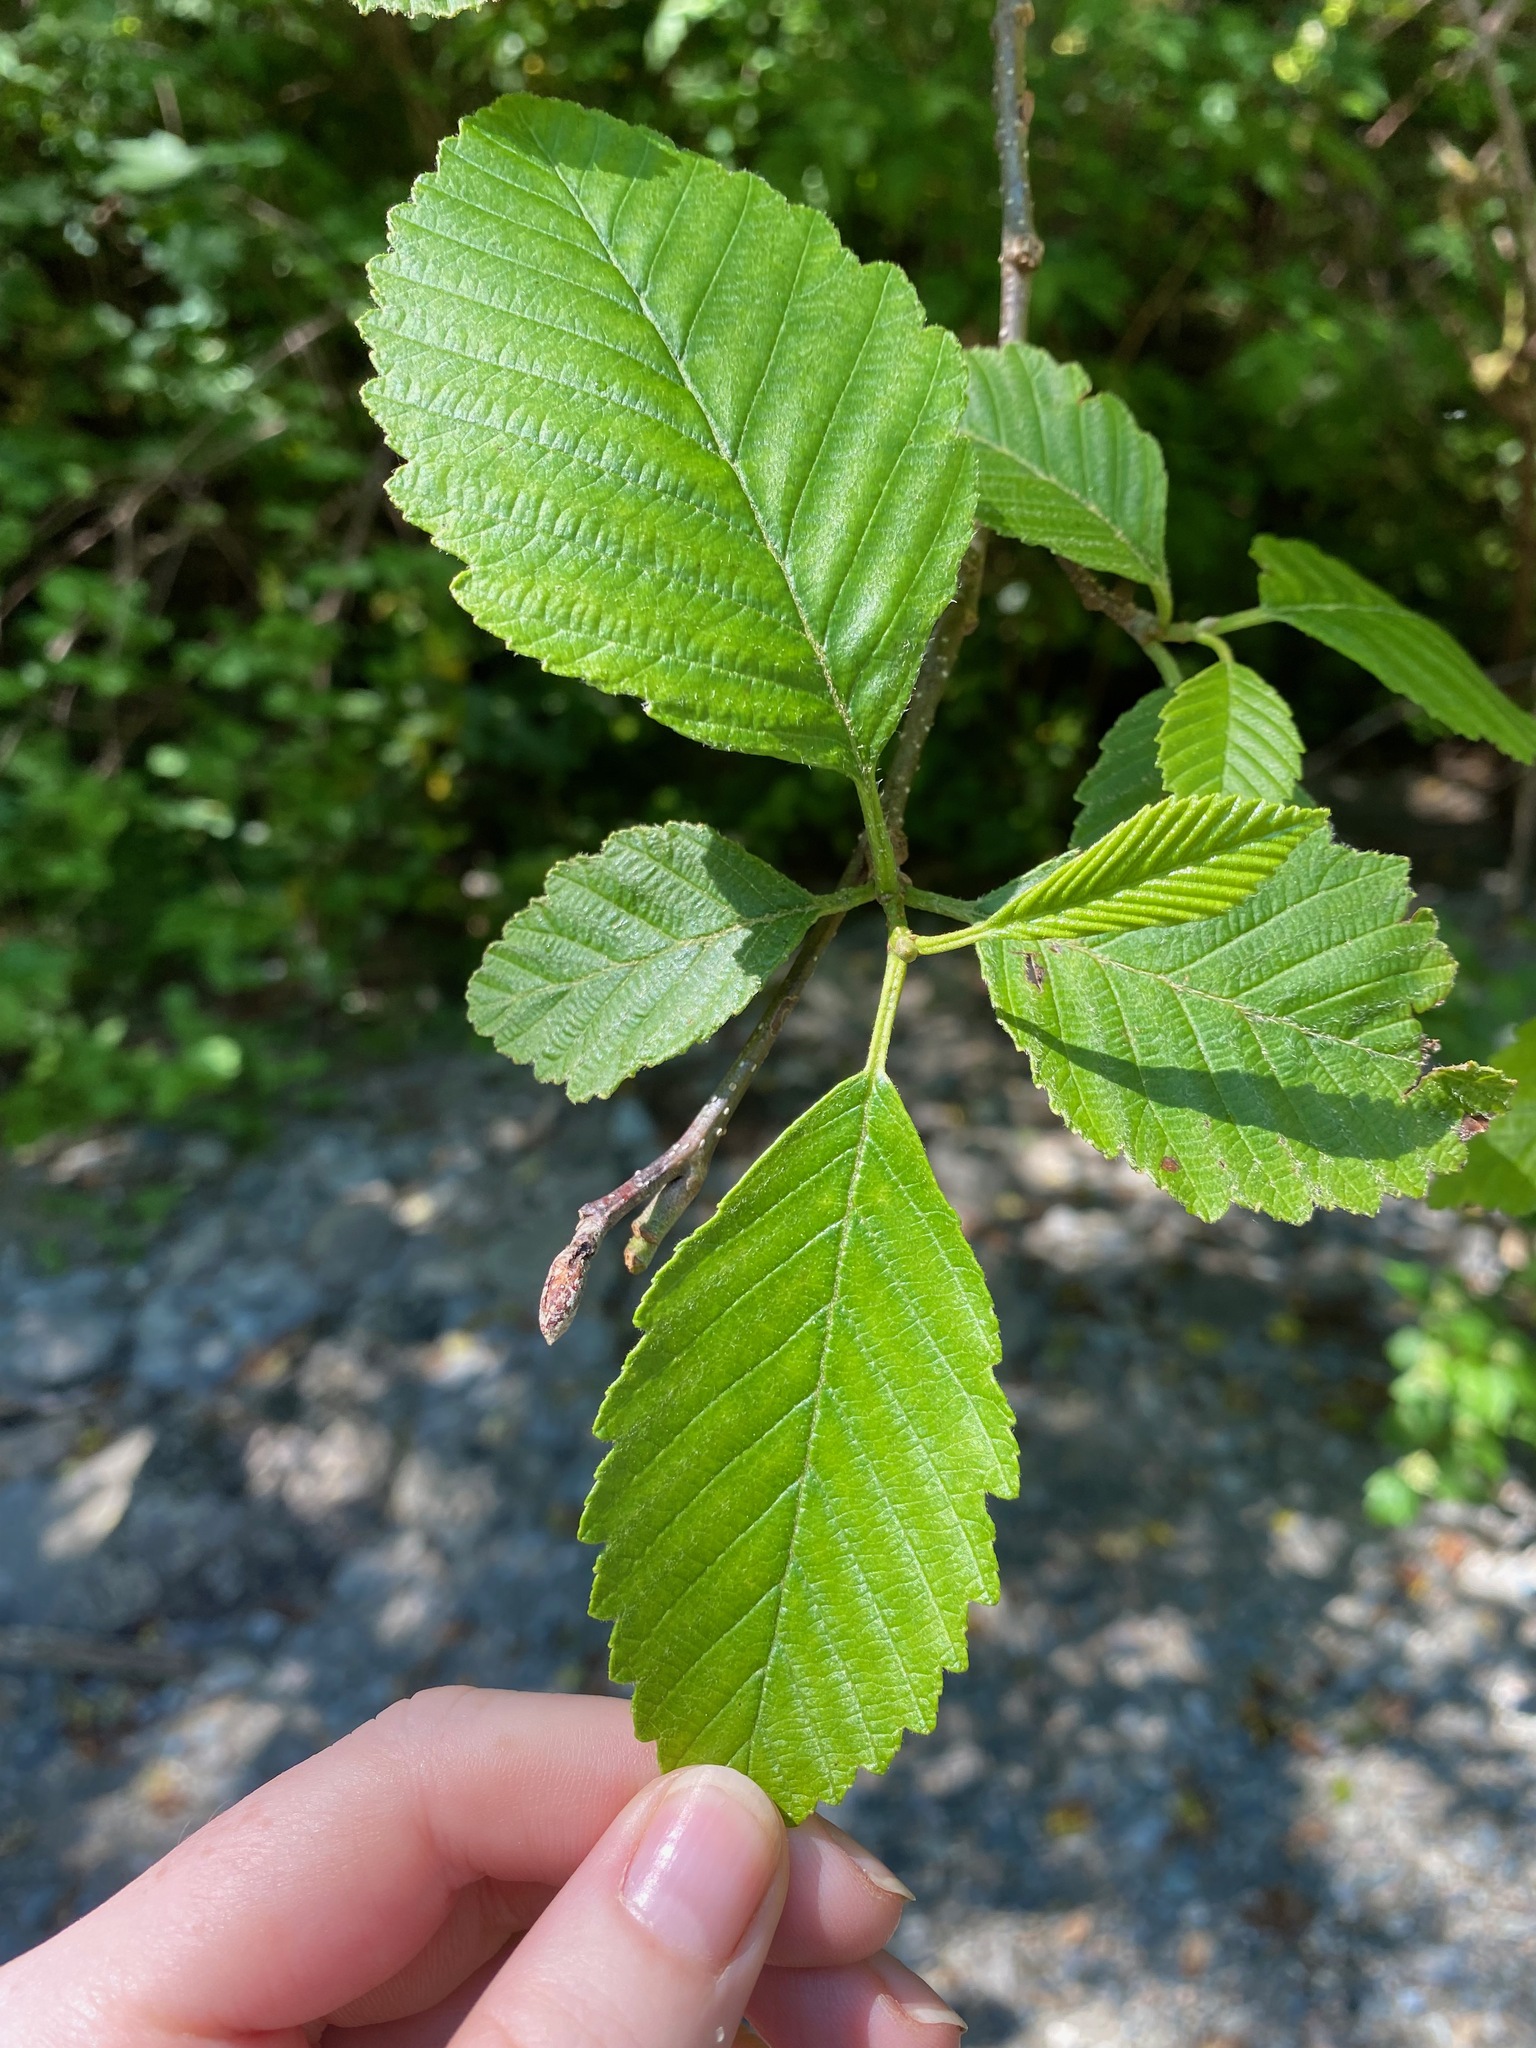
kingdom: Plantae
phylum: Tracheophyta
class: Magnoliopsida
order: Fagales
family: Betulaceae
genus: Alnus
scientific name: Alnus rubra
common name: Red alder
